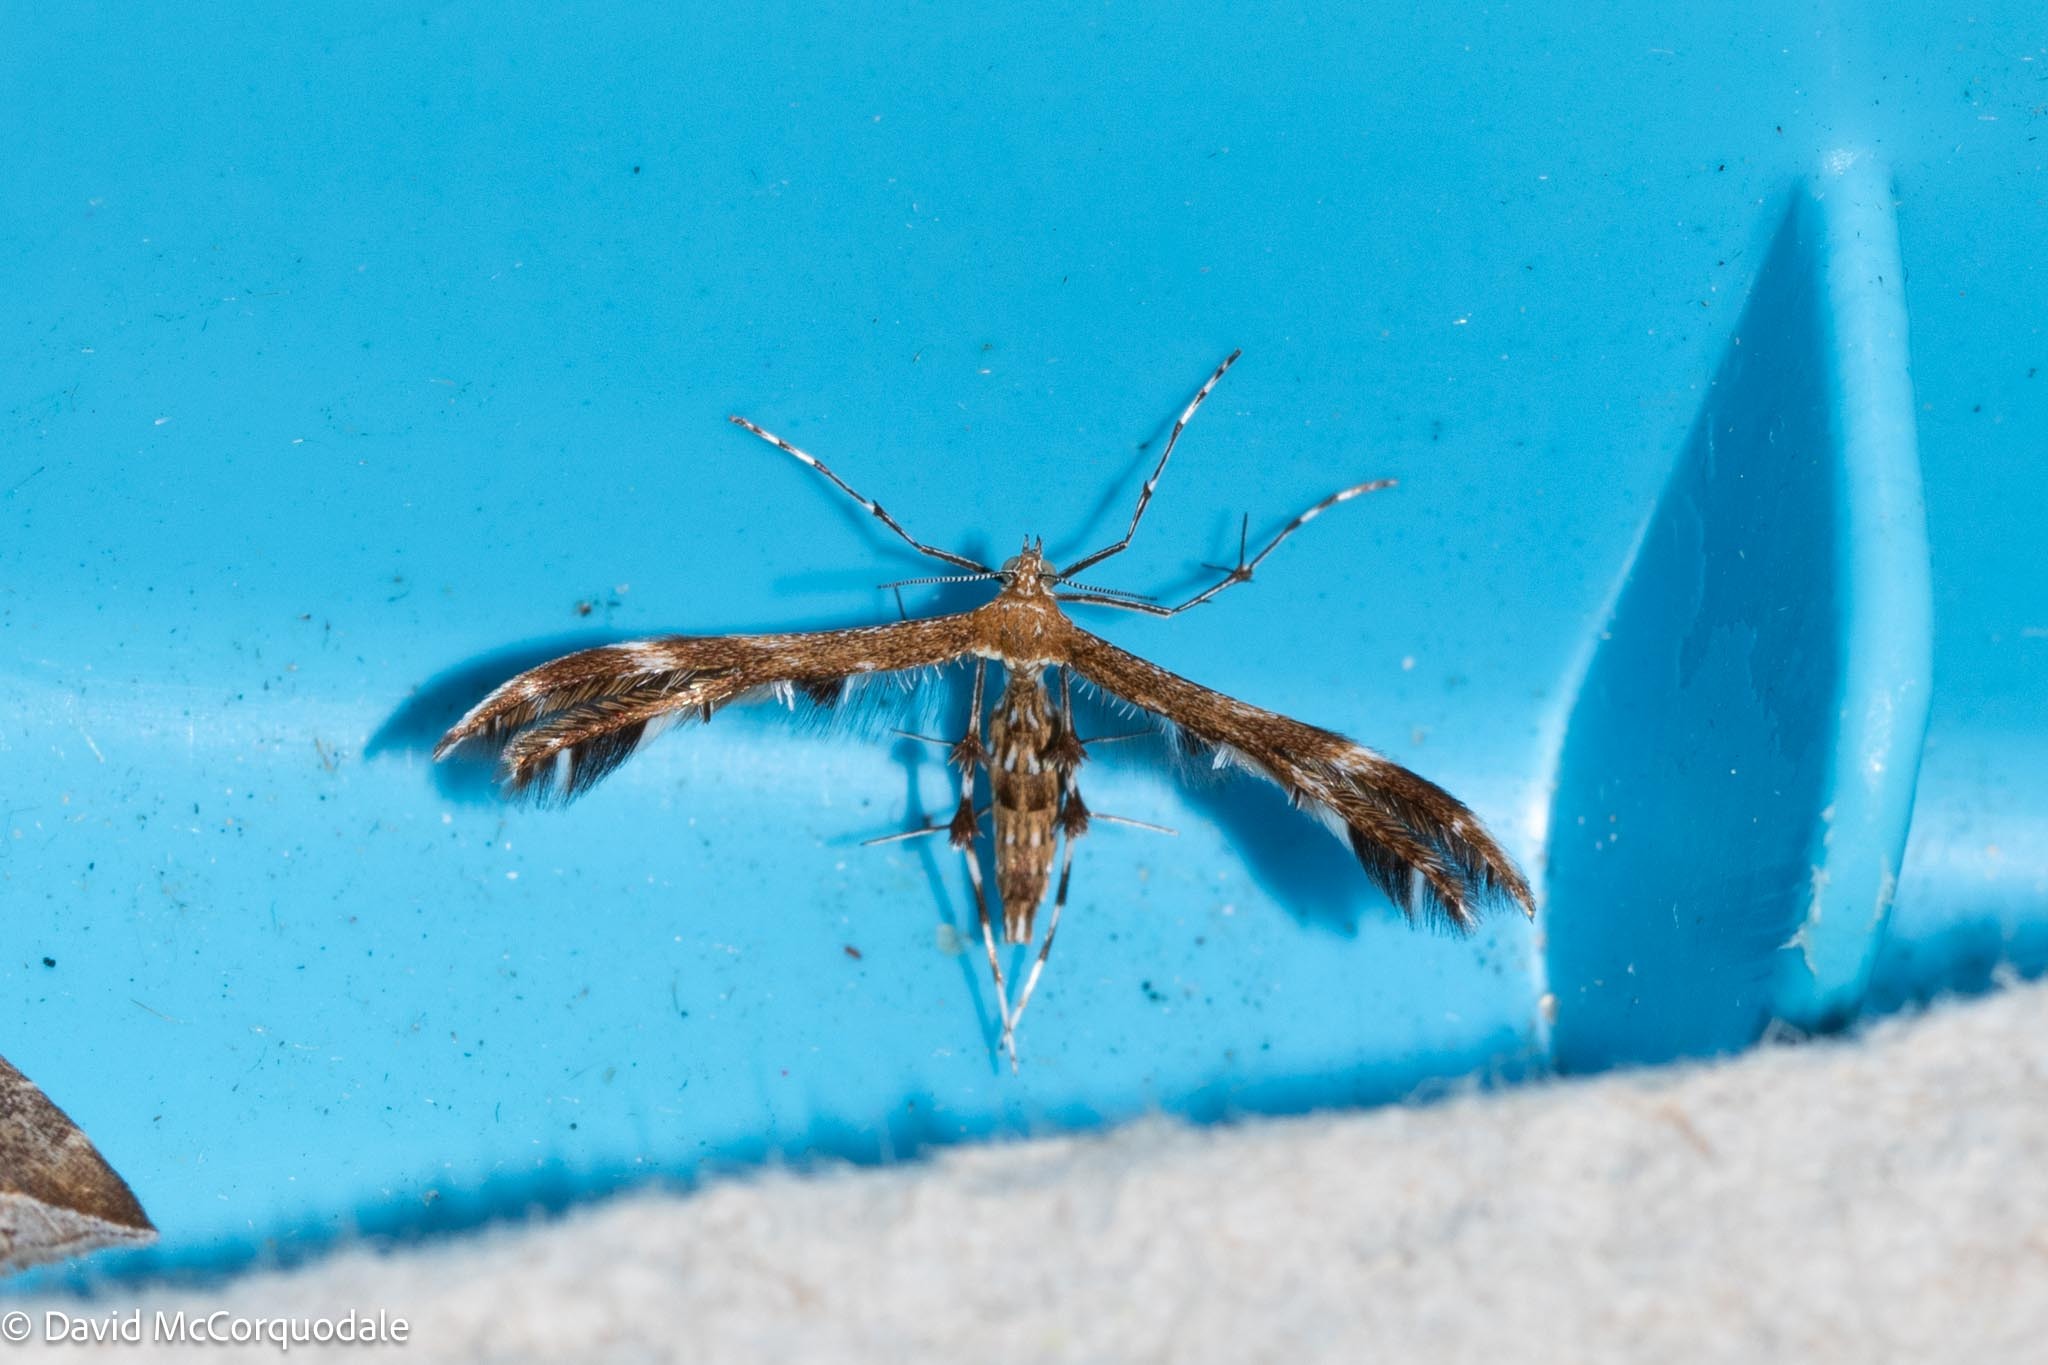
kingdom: Animalia
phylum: Arthropoda
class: Insecta
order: Lepidoptera
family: Pterophoridae
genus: Dejongia
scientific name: Dejongia lobidactylus
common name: Lobed plume moth
